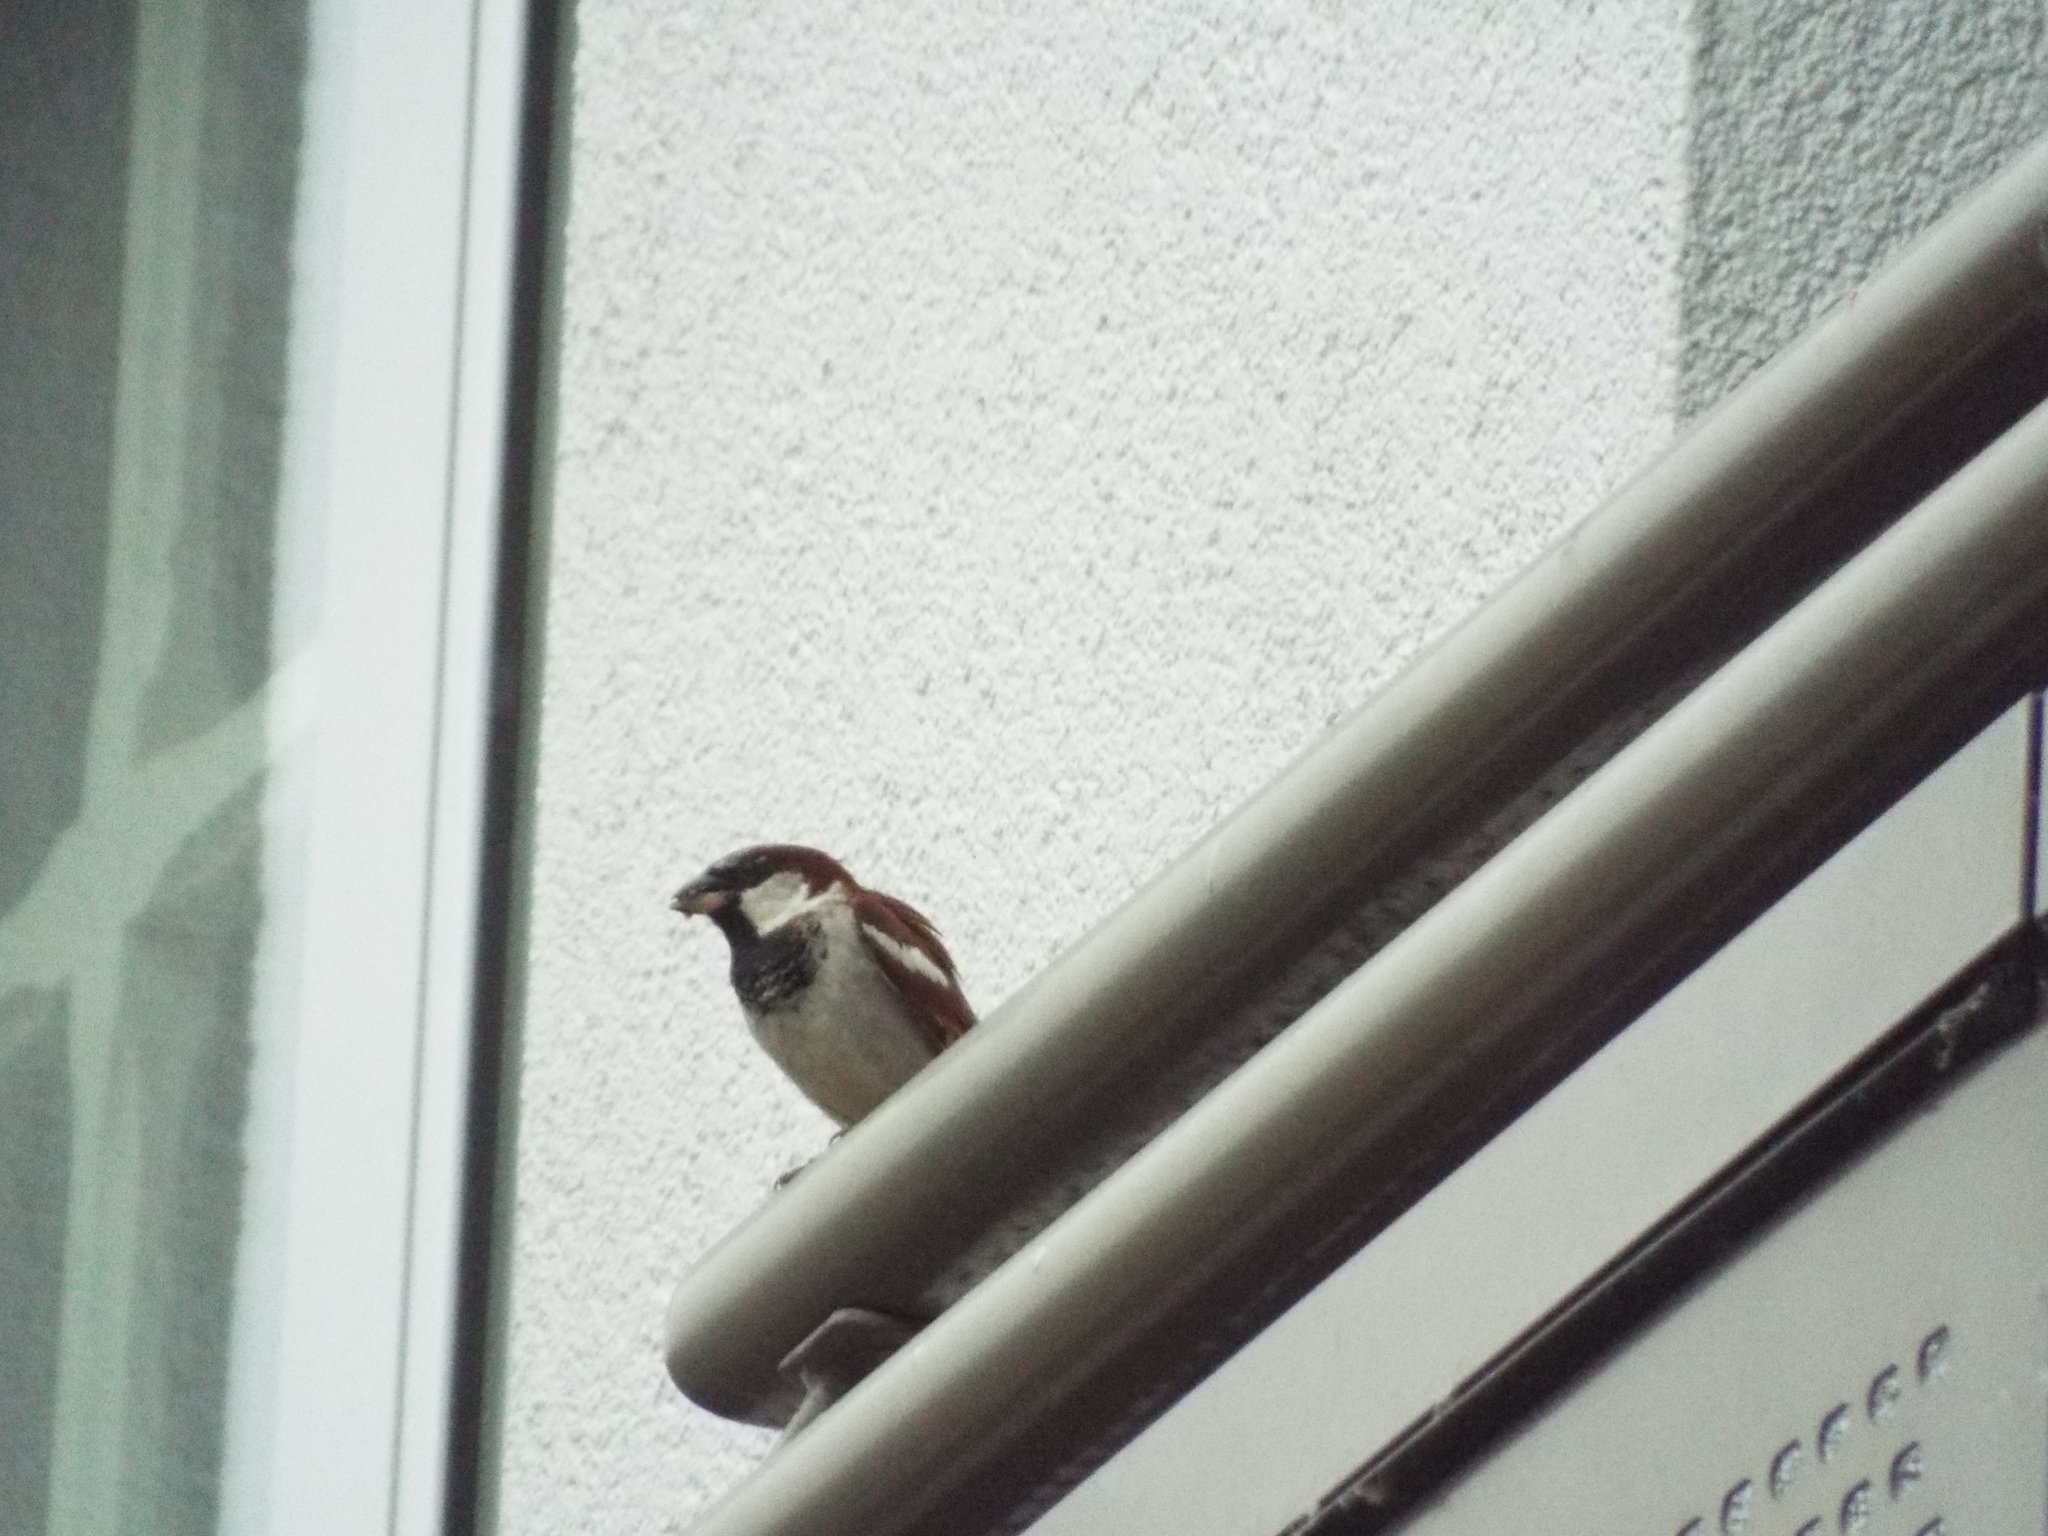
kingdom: Animalia
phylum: Chordata
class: Aves
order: Passeriformes
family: Passeridae
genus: Passer
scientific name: Passer domesticus
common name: House sparrow
